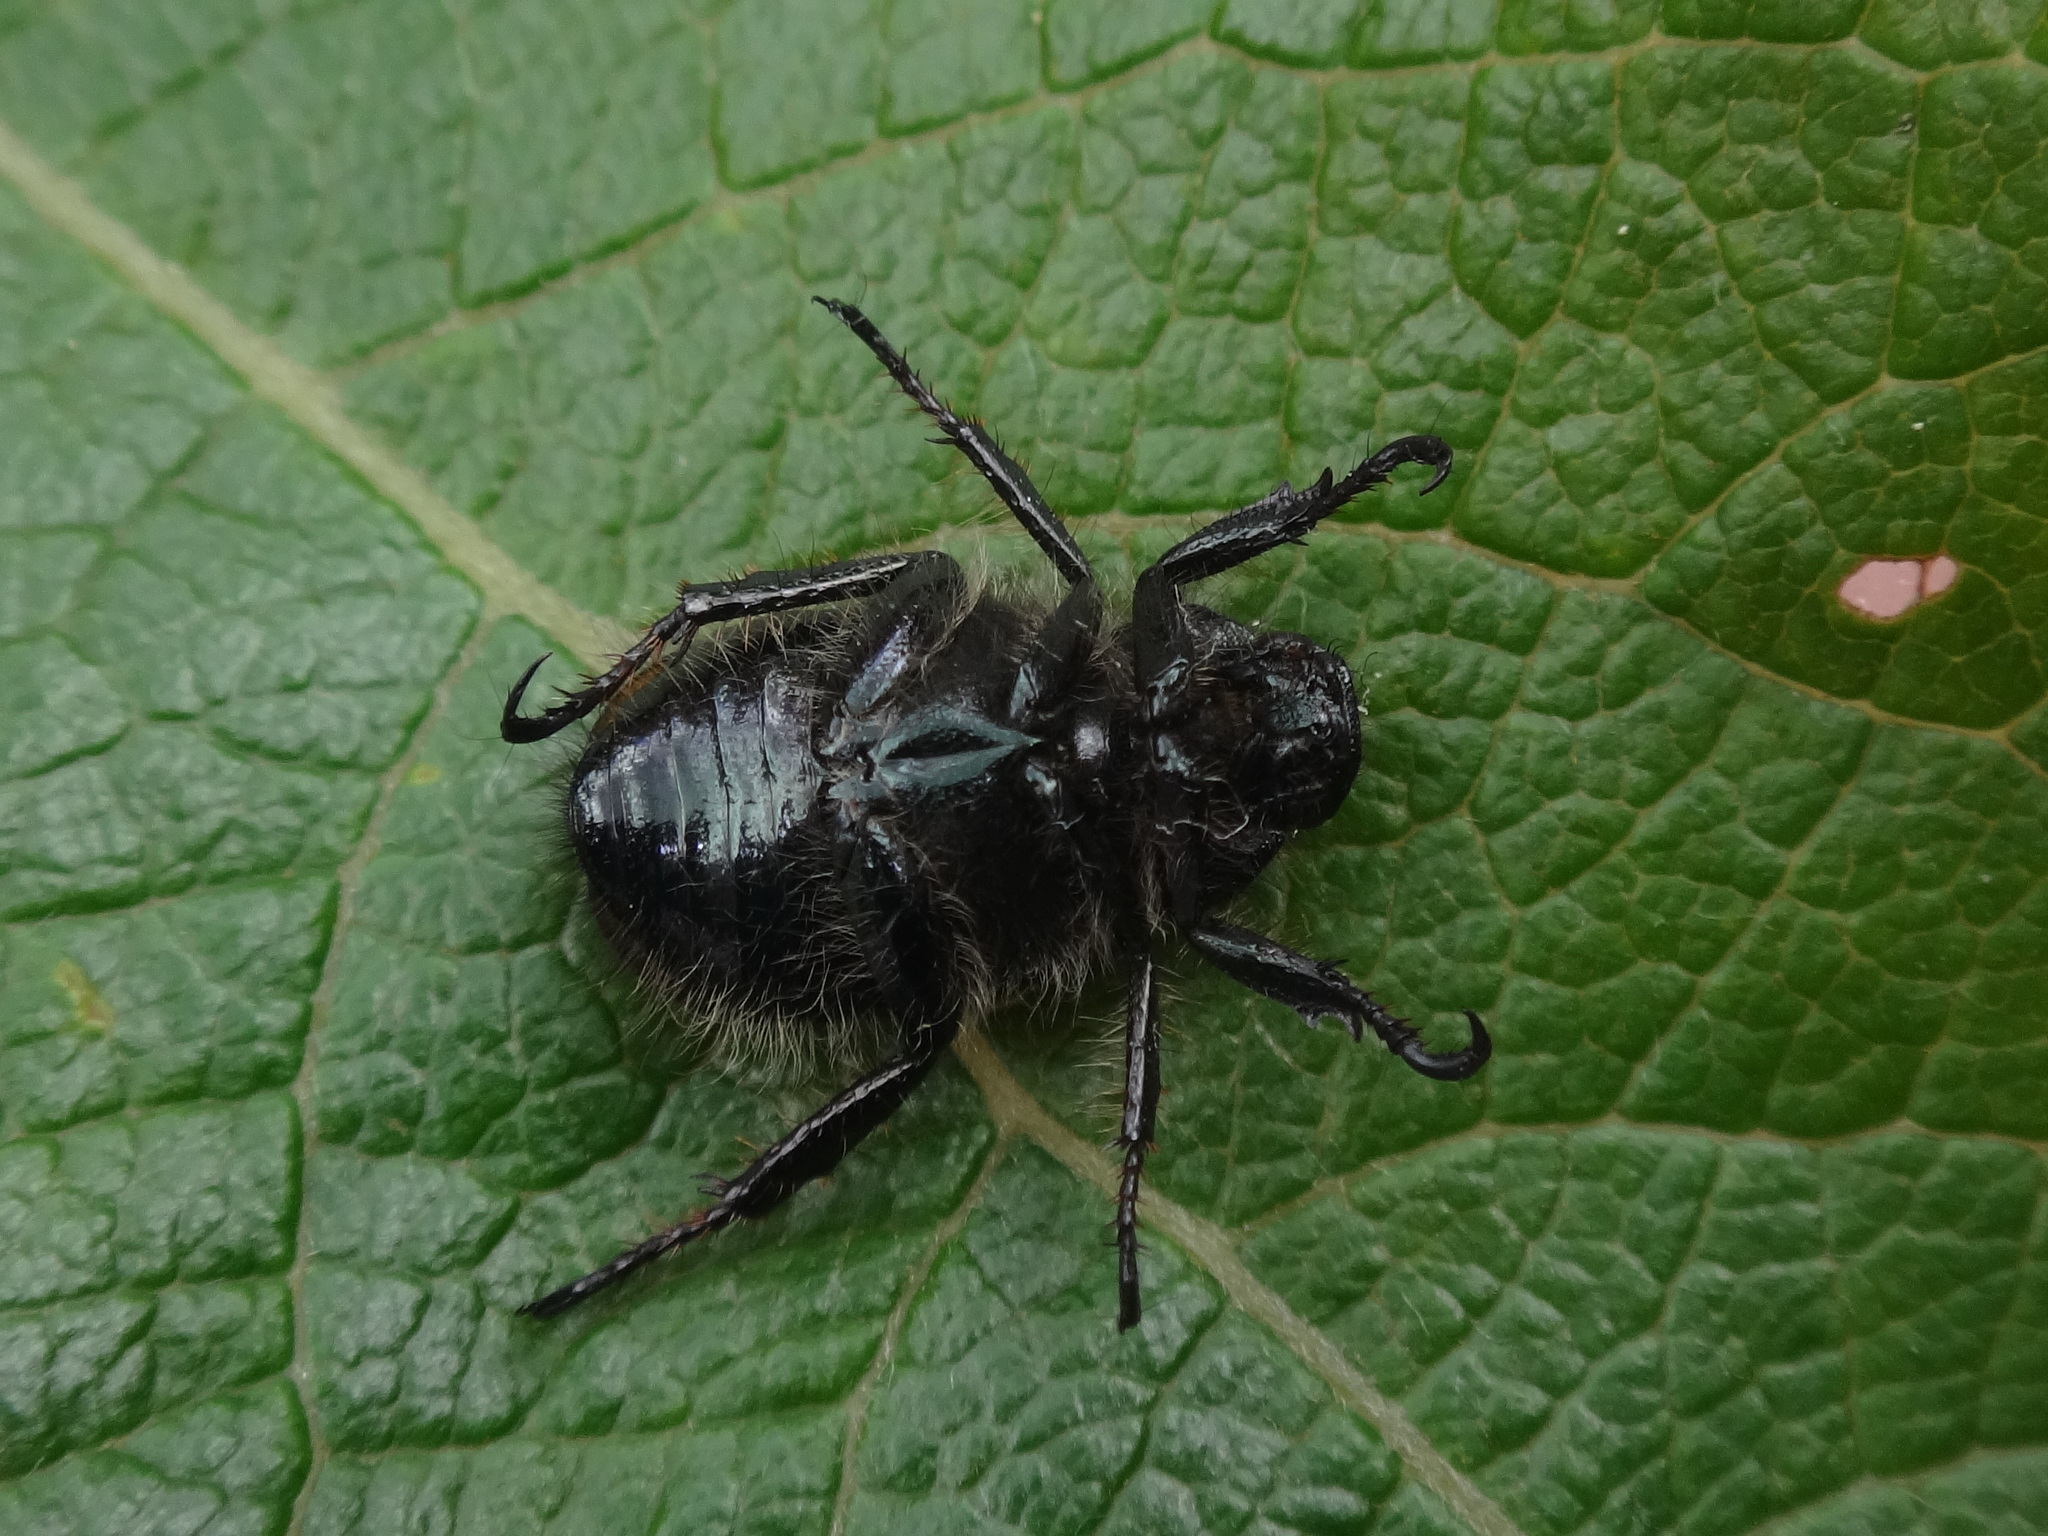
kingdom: Animalia
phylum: Arthropoda
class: Insecta
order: Coleoptera
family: Scarabaeidae
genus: Phyllopertha
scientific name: Phyllopertha horticola
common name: Garden chafer
